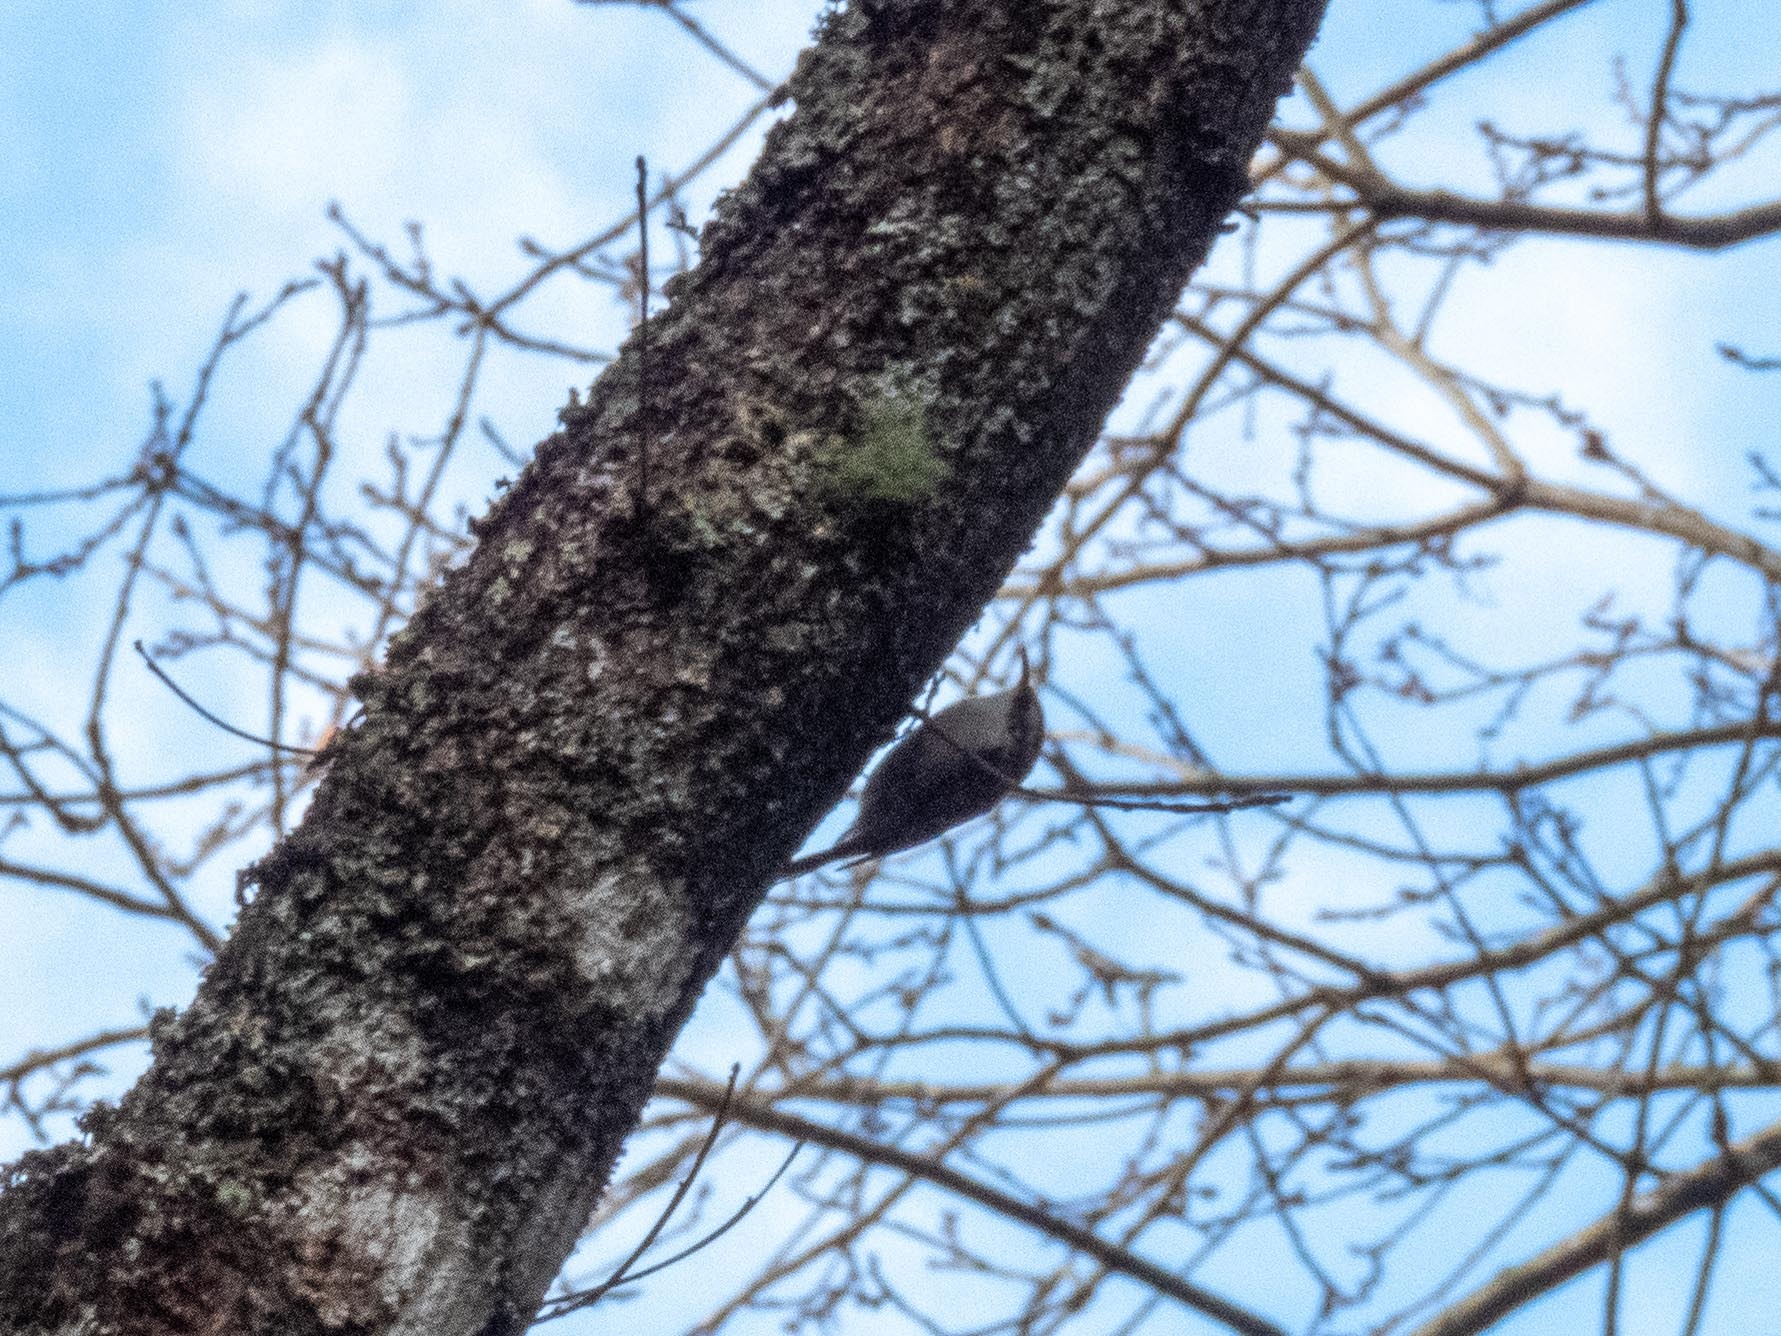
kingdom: Animalia
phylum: Chordata
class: Aves
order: Passeriformes
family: Certhiidae
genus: Certhia
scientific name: Certhia brachydactyla
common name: Short-toed treecreeper
